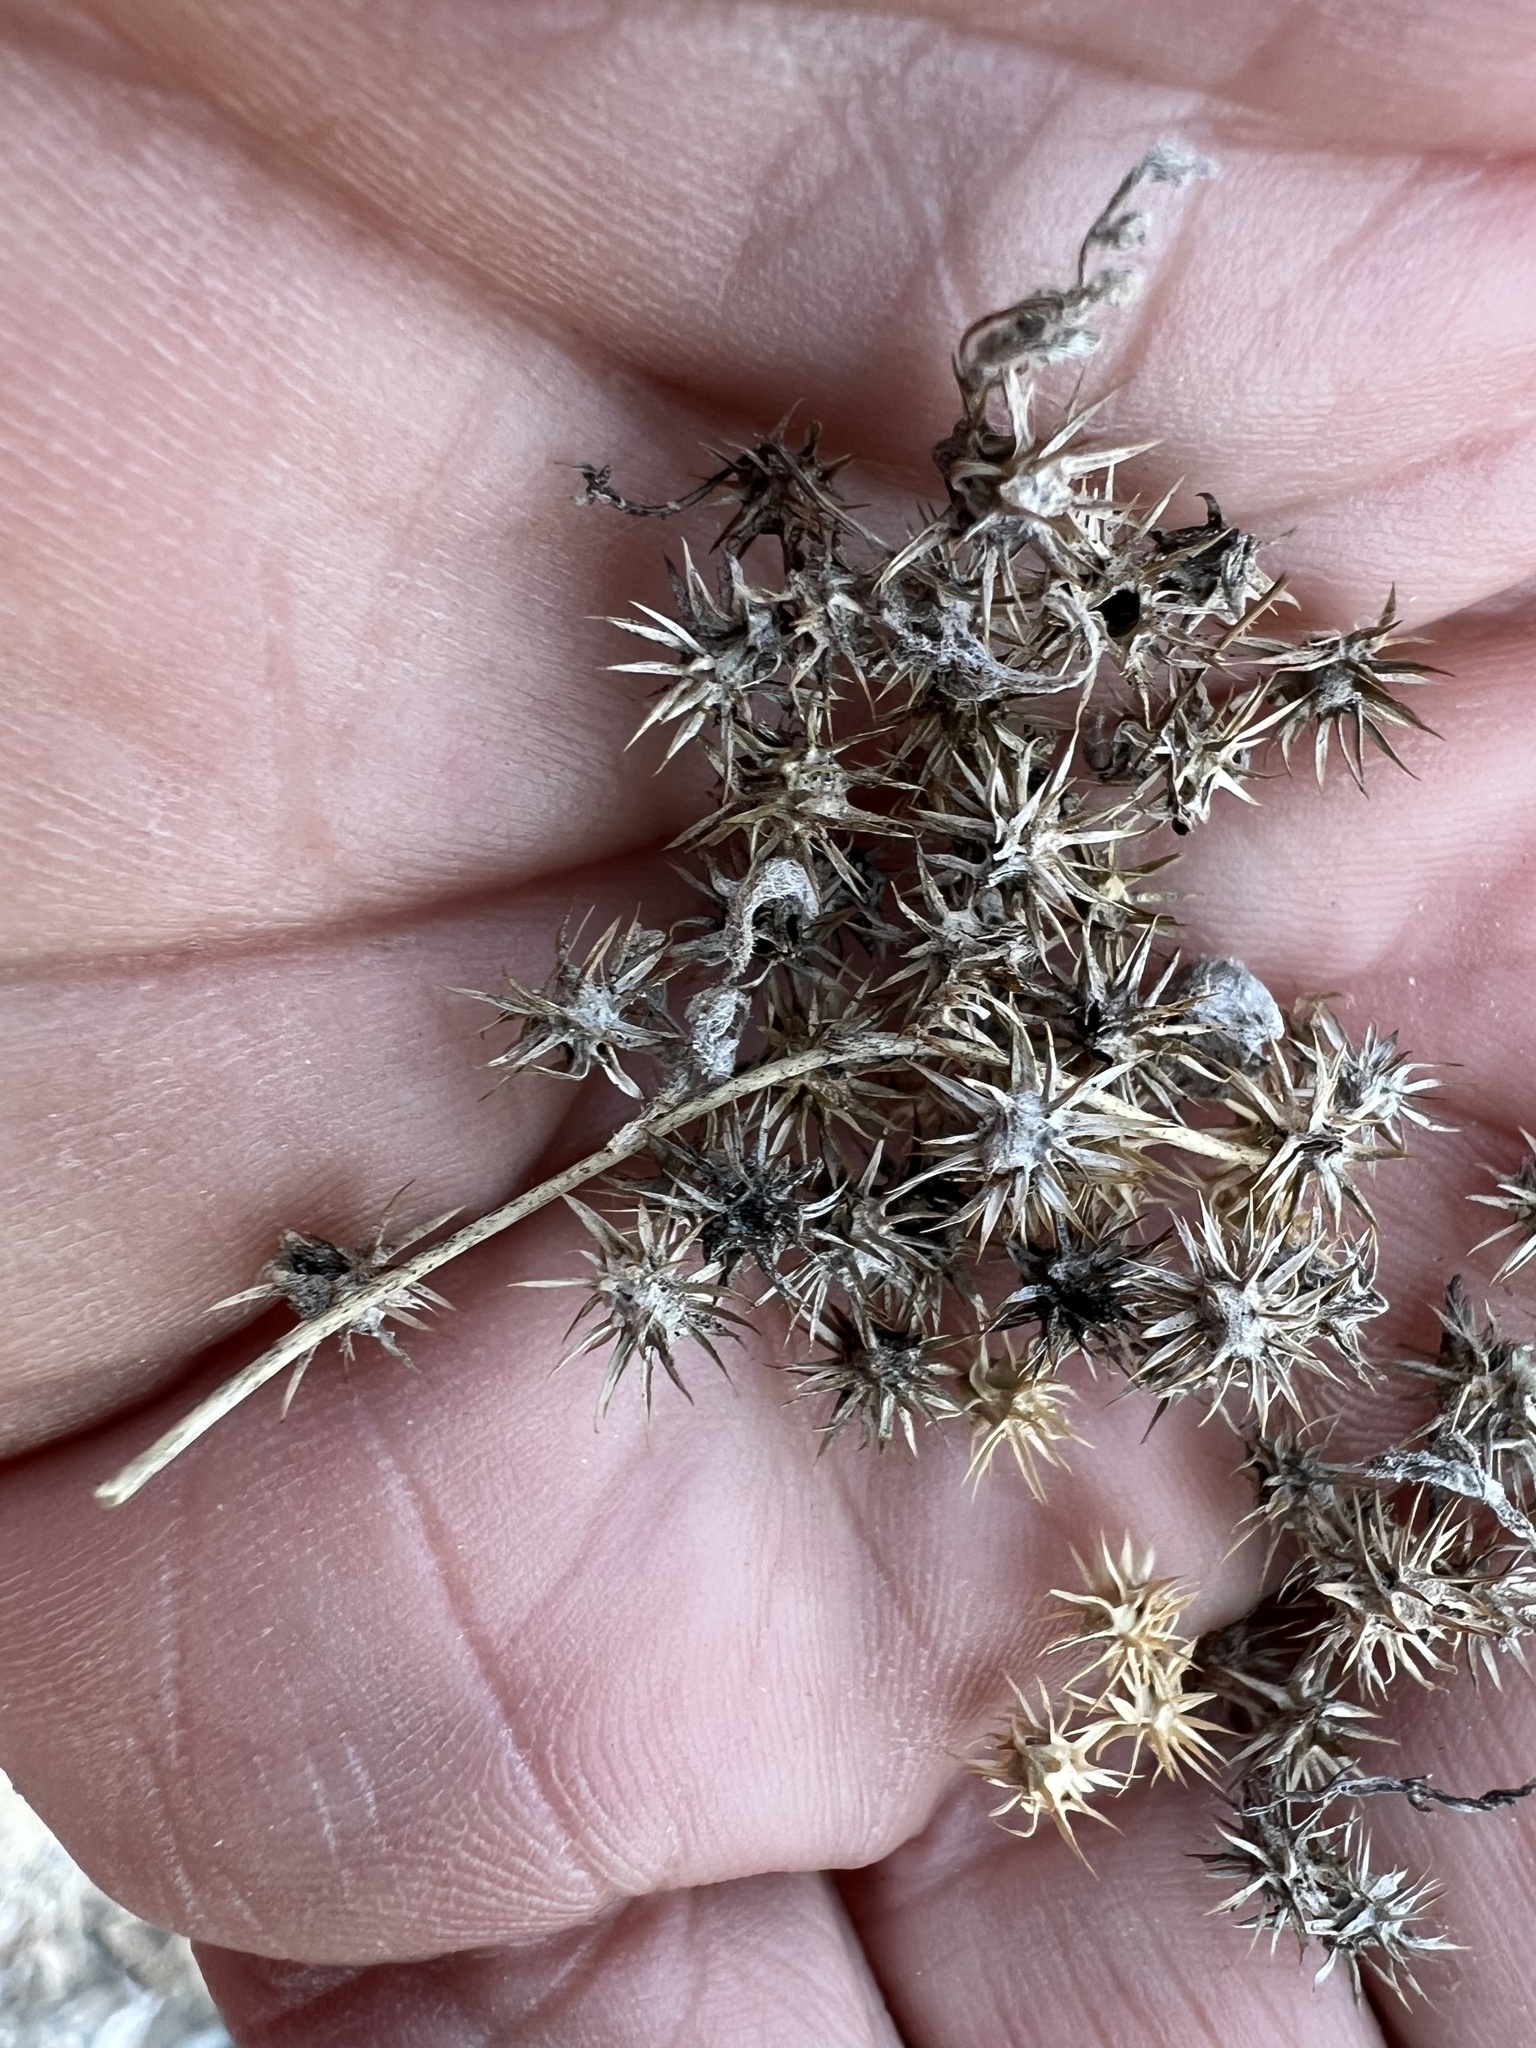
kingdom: Plantae
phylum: Tracheophyta
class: Magnoliopsida
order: Asterales
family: Asteraceae
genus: Ambrosia
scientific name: Ambrosia dumosa
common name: Bur-sage
